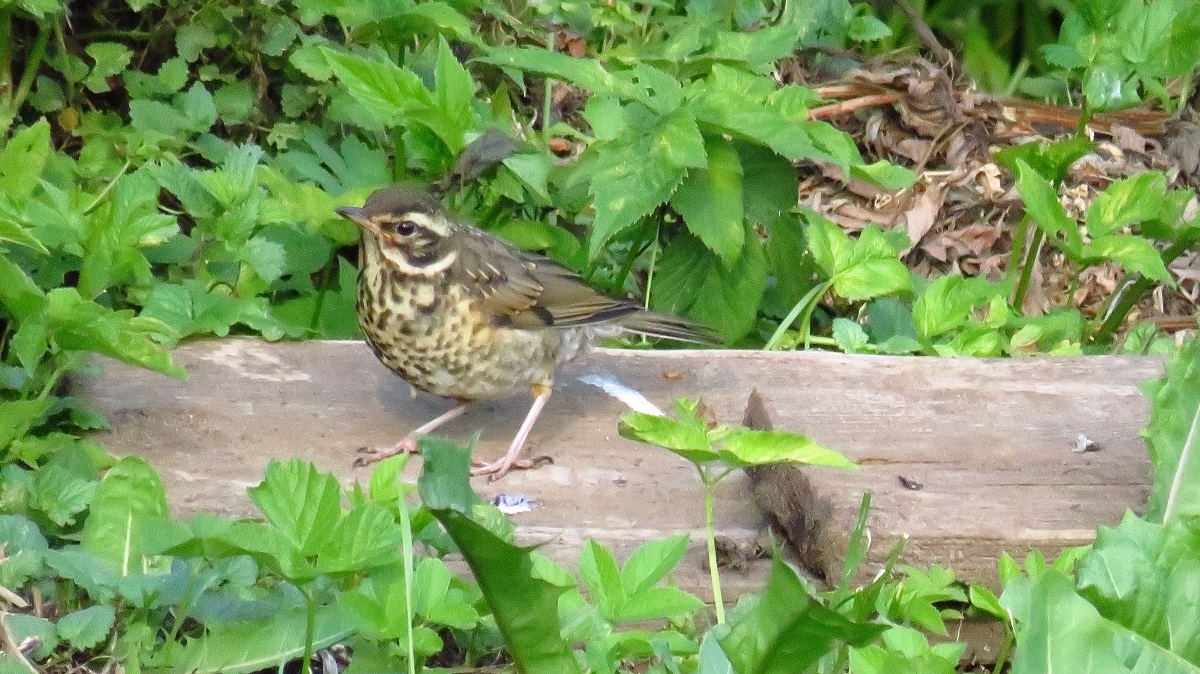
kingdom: Animalia
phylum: Chordata
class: Aves
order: Passeriformes
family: Turdidae
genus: Turdus
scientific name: Turdus iliacus
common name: Redwing
